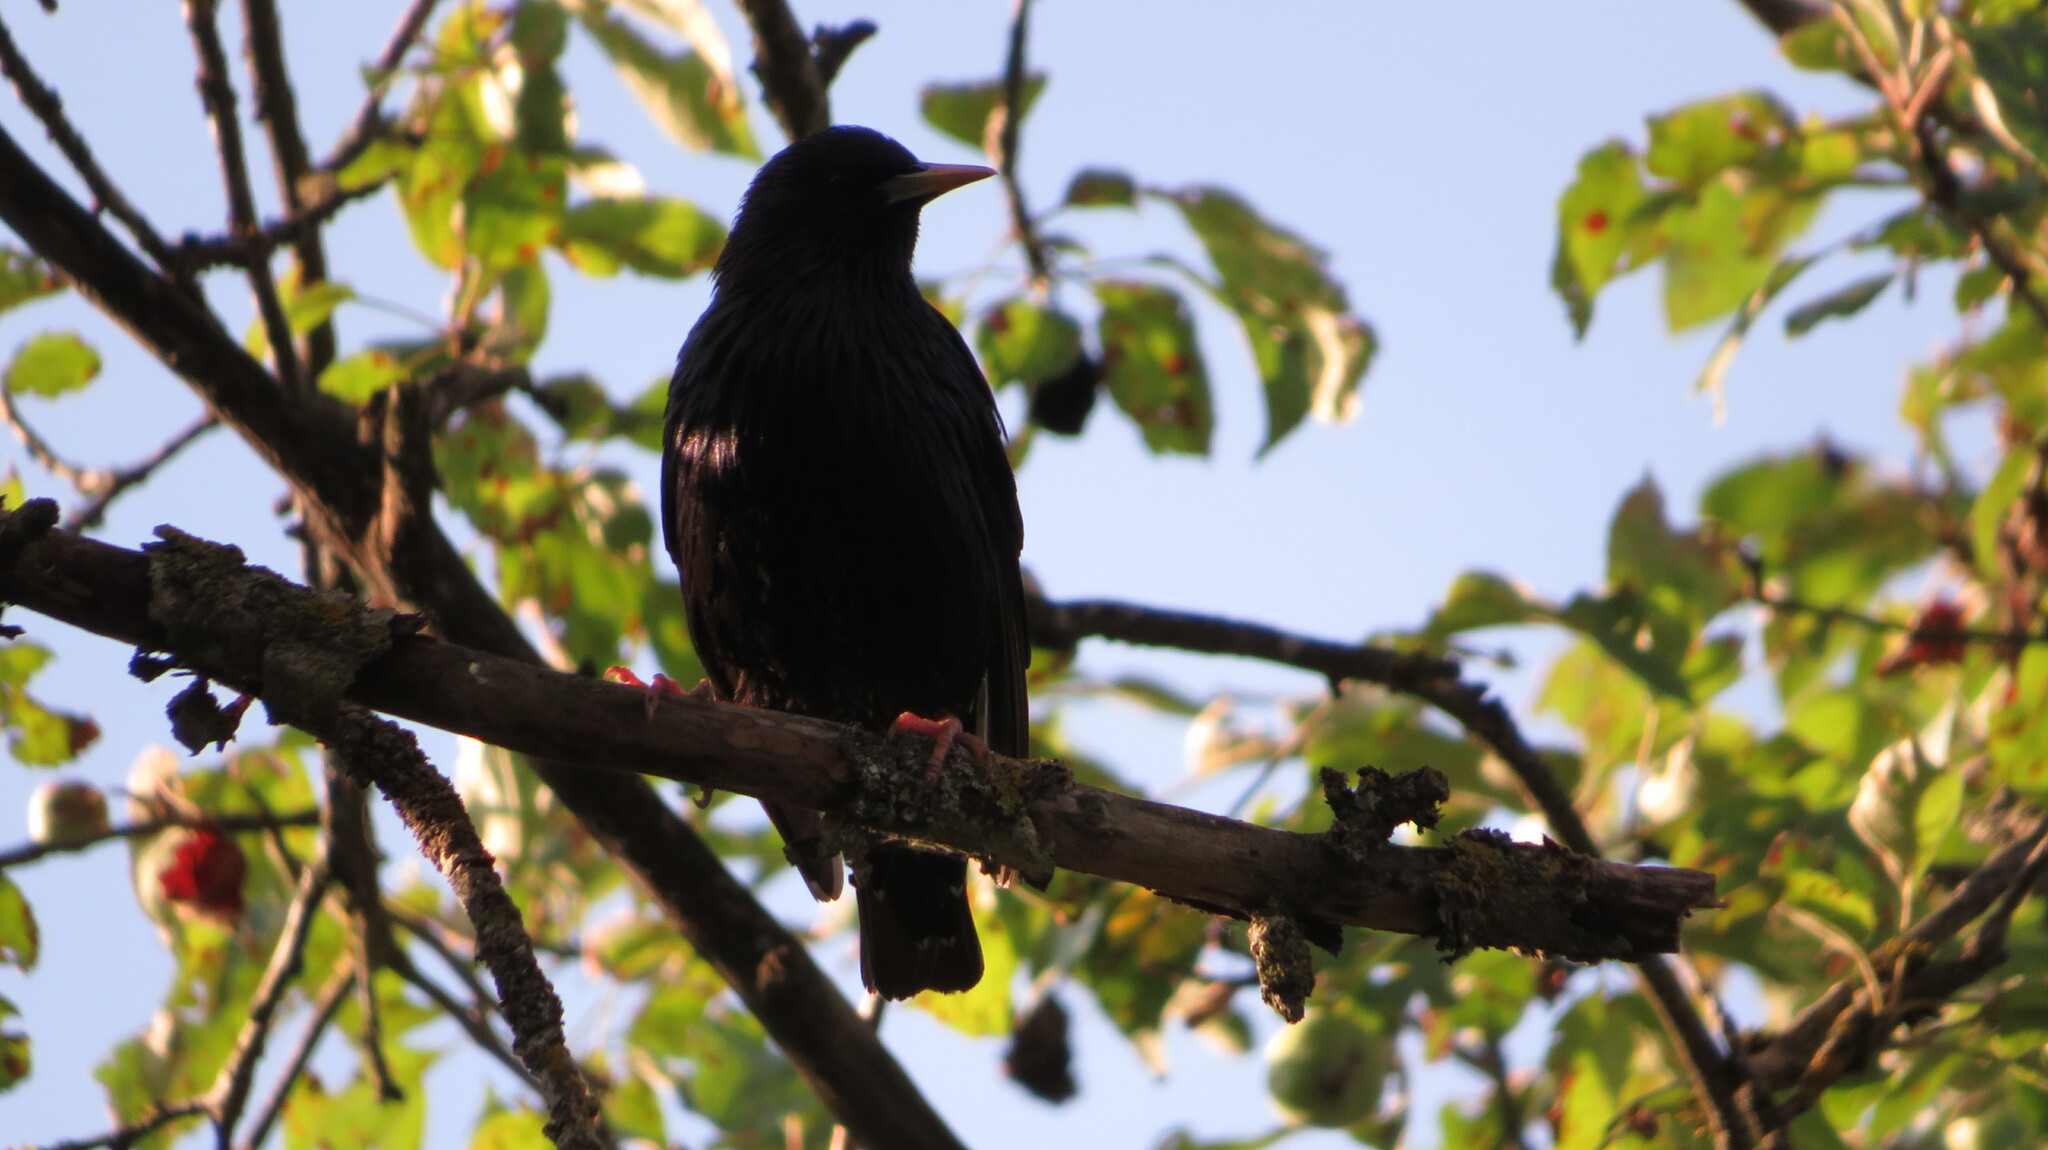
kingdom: Animalia
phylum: Chordata
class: Aves
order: Passeriformes
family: Sturnidae
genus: Sturnus
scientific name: Sturnus vulgaris
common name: Common starling
